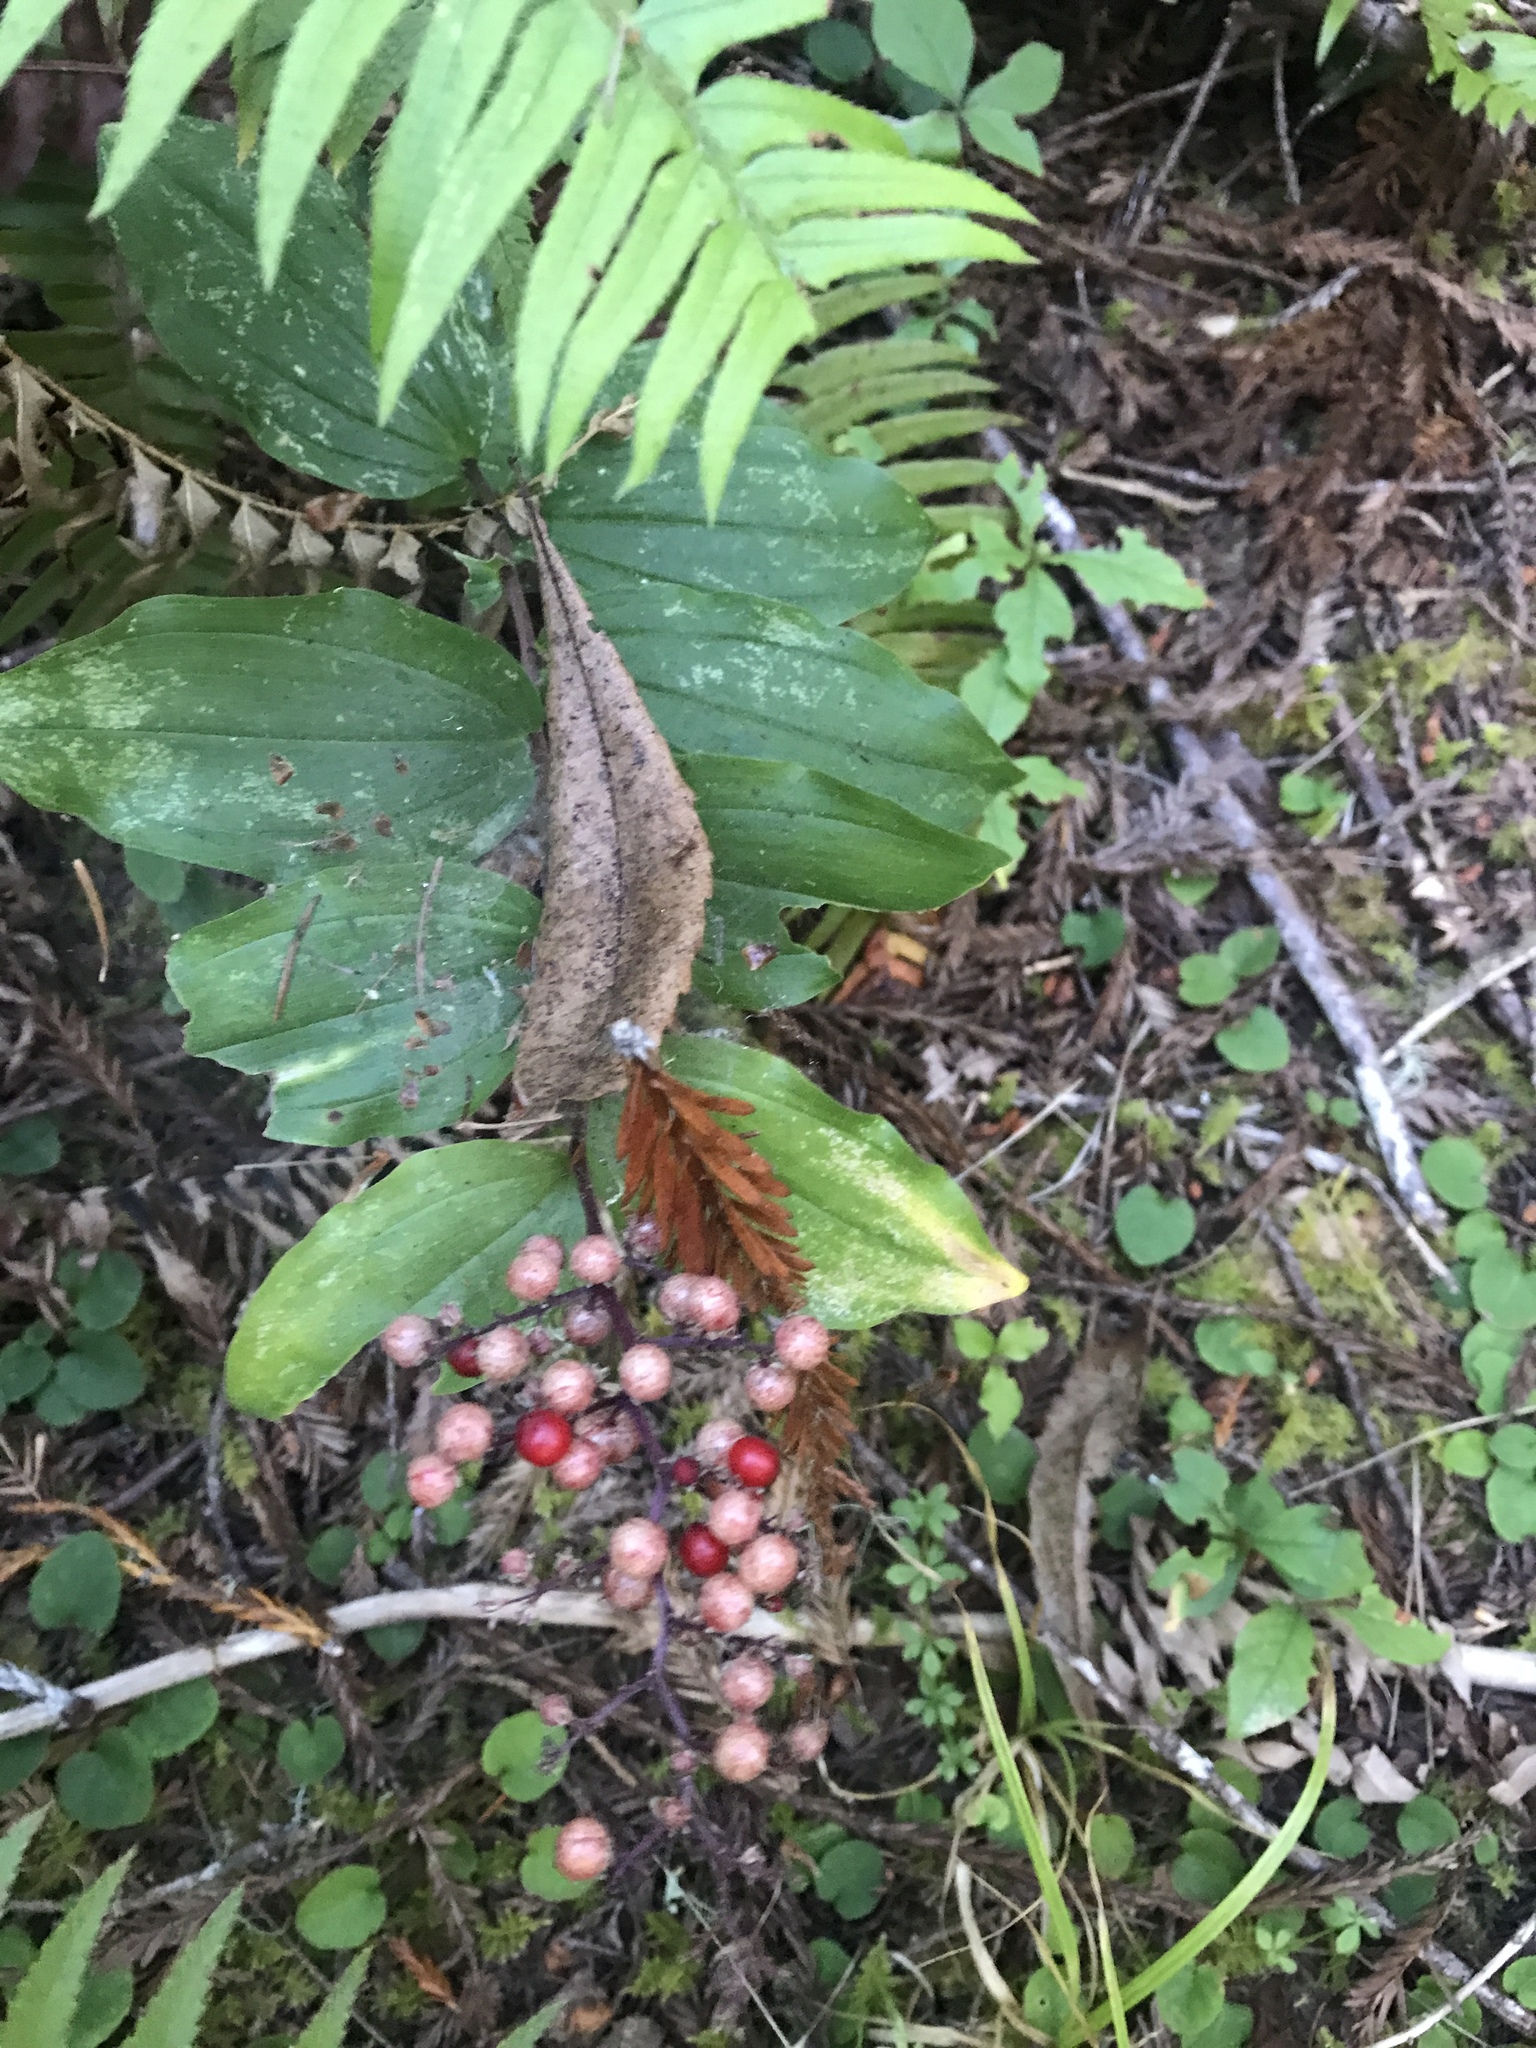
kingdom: Plantae
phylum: Tracheophyta
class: Liliopsida
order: Asparagales
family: Asparagaceae
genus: Maianthemum
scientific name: Maianthemum racemosum
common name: False spikenard
